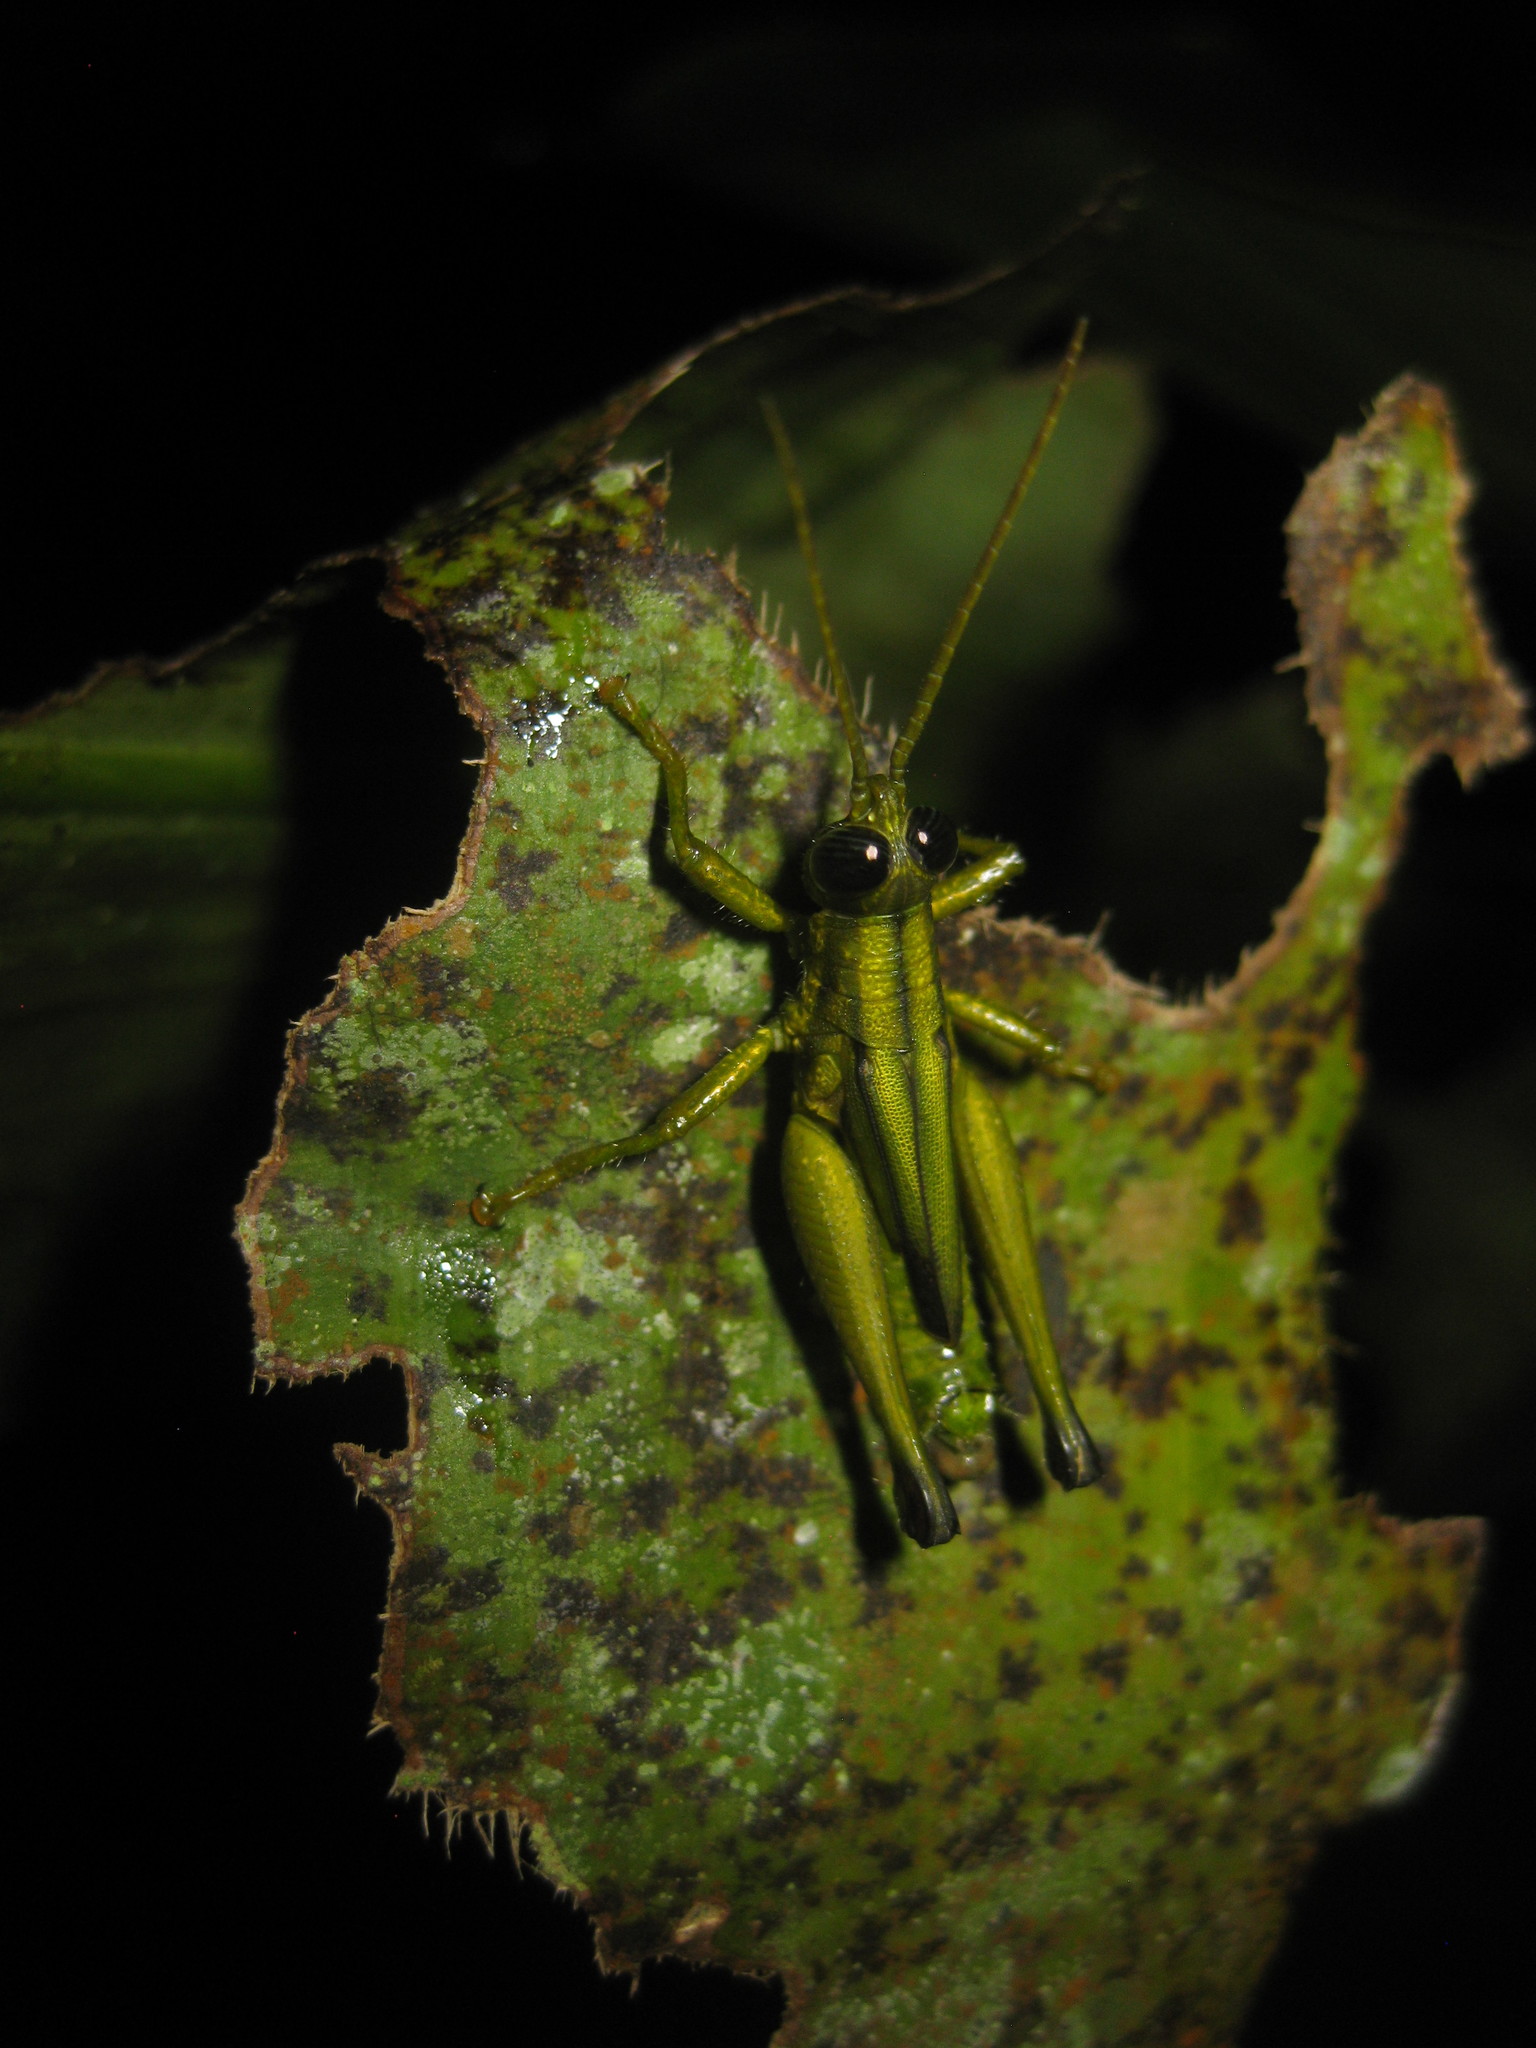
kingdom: Animalia
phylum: Arthropoda
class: Insecta
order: Orthoptera
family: Acrididae
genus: Syntomacris
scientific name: Syntomacris viridis
